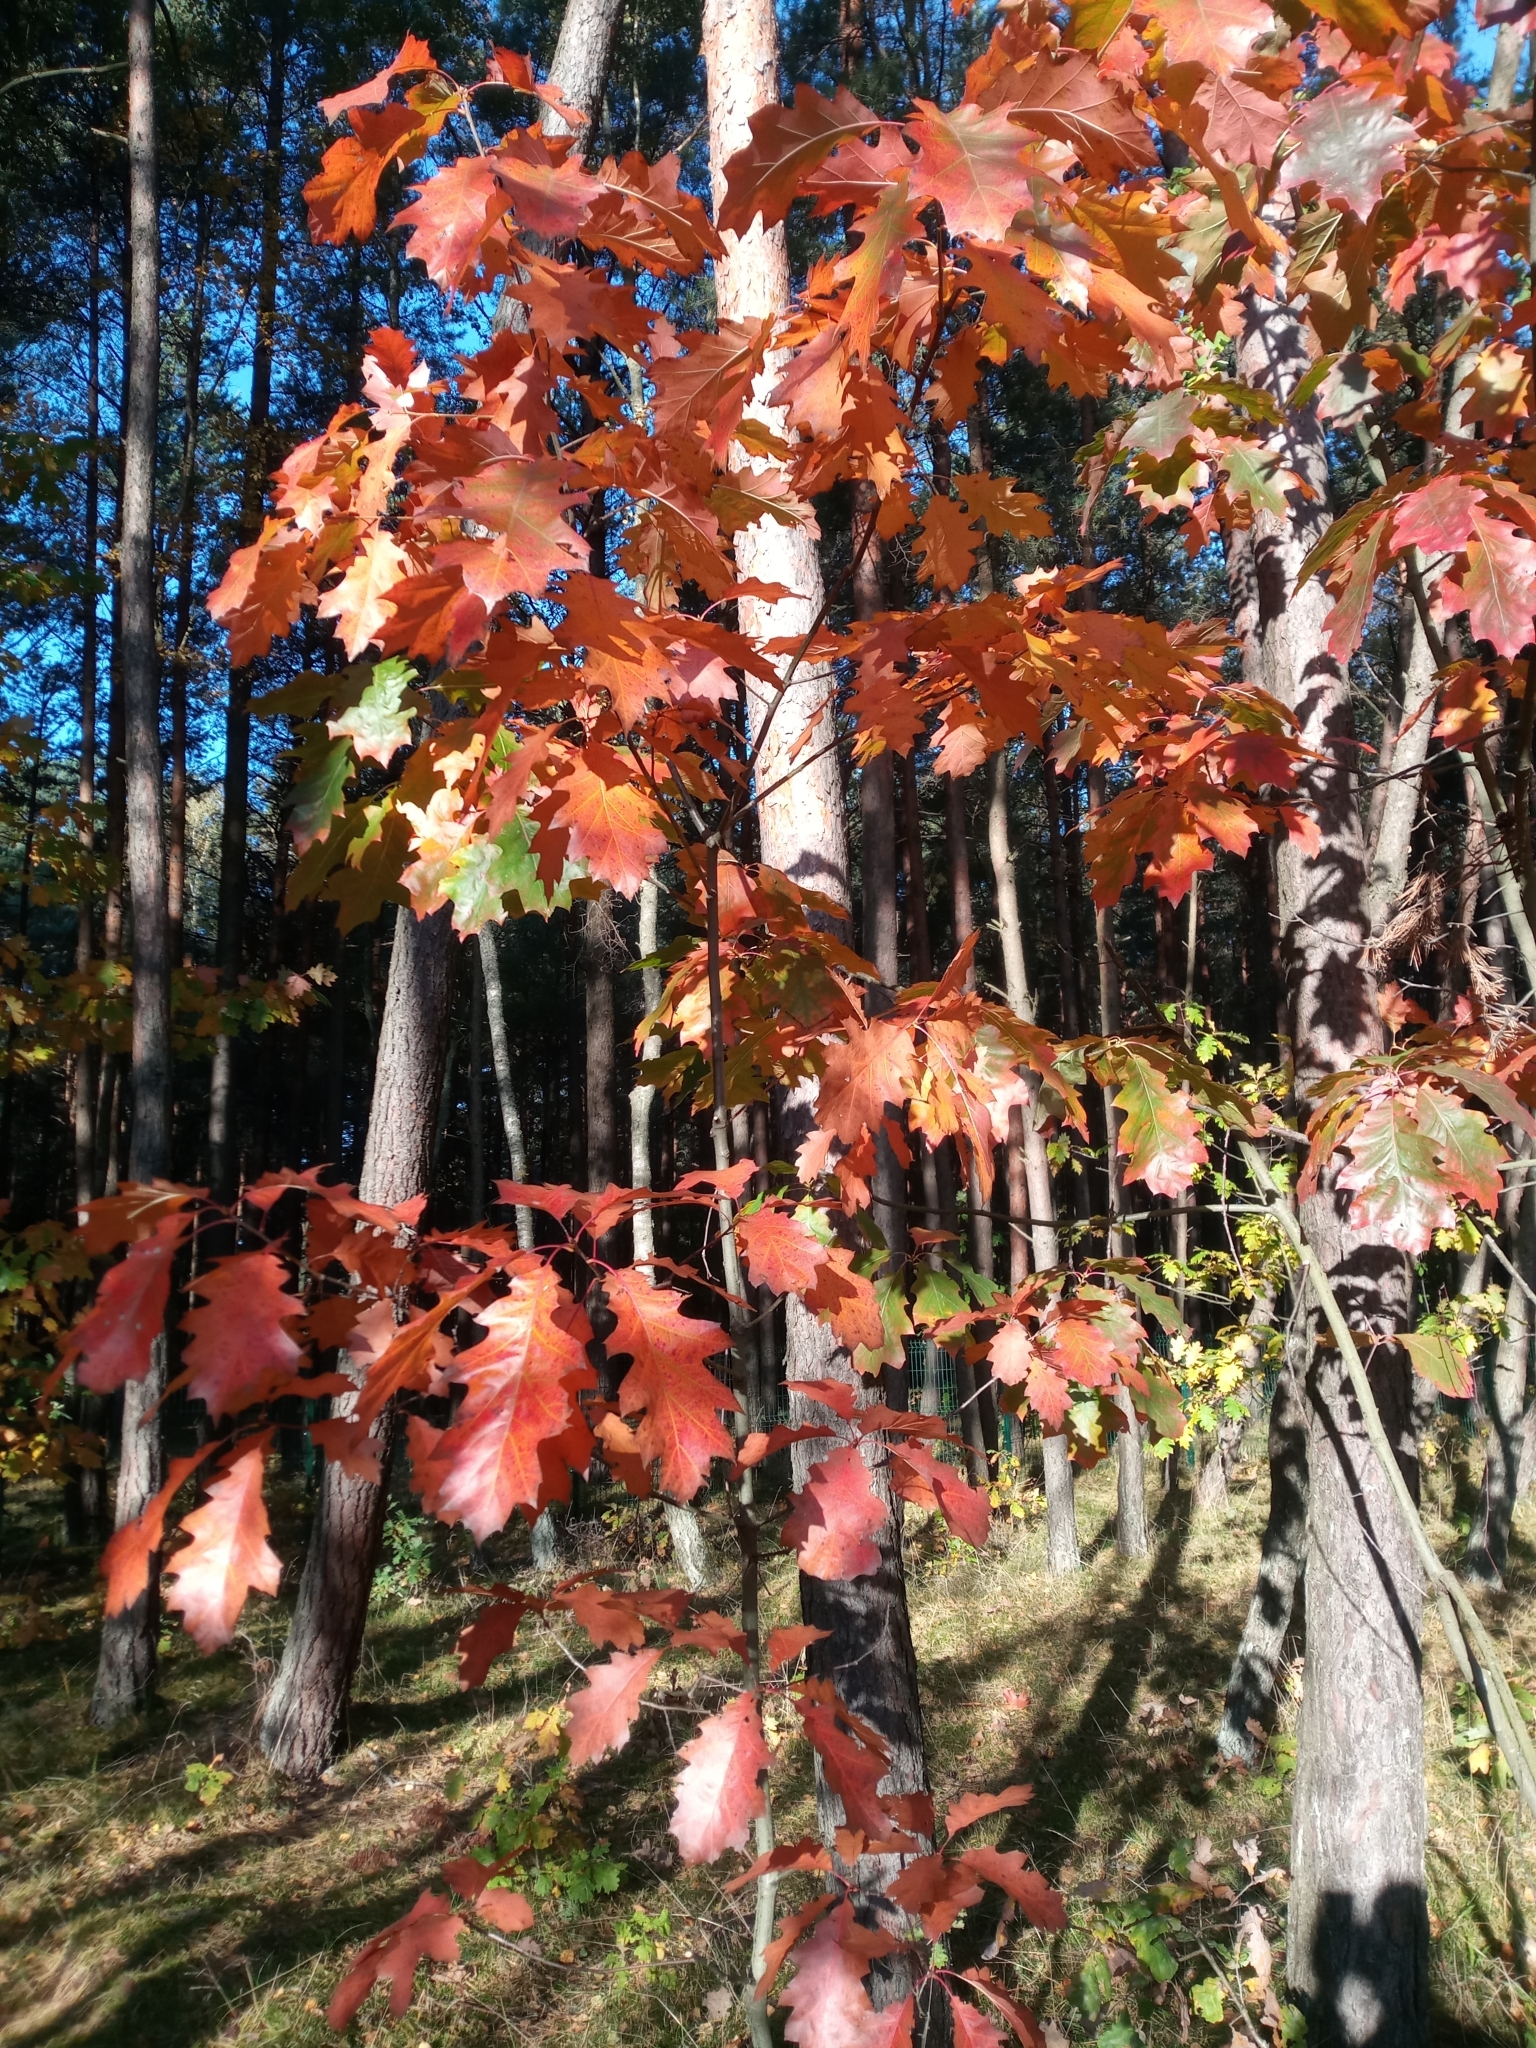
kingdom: Plantae
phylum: Tracheophyta
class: Magnoliopsida
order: Fagales
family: Fagaceae
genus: Quercus
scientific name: Quercus rubra
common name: Red oak
